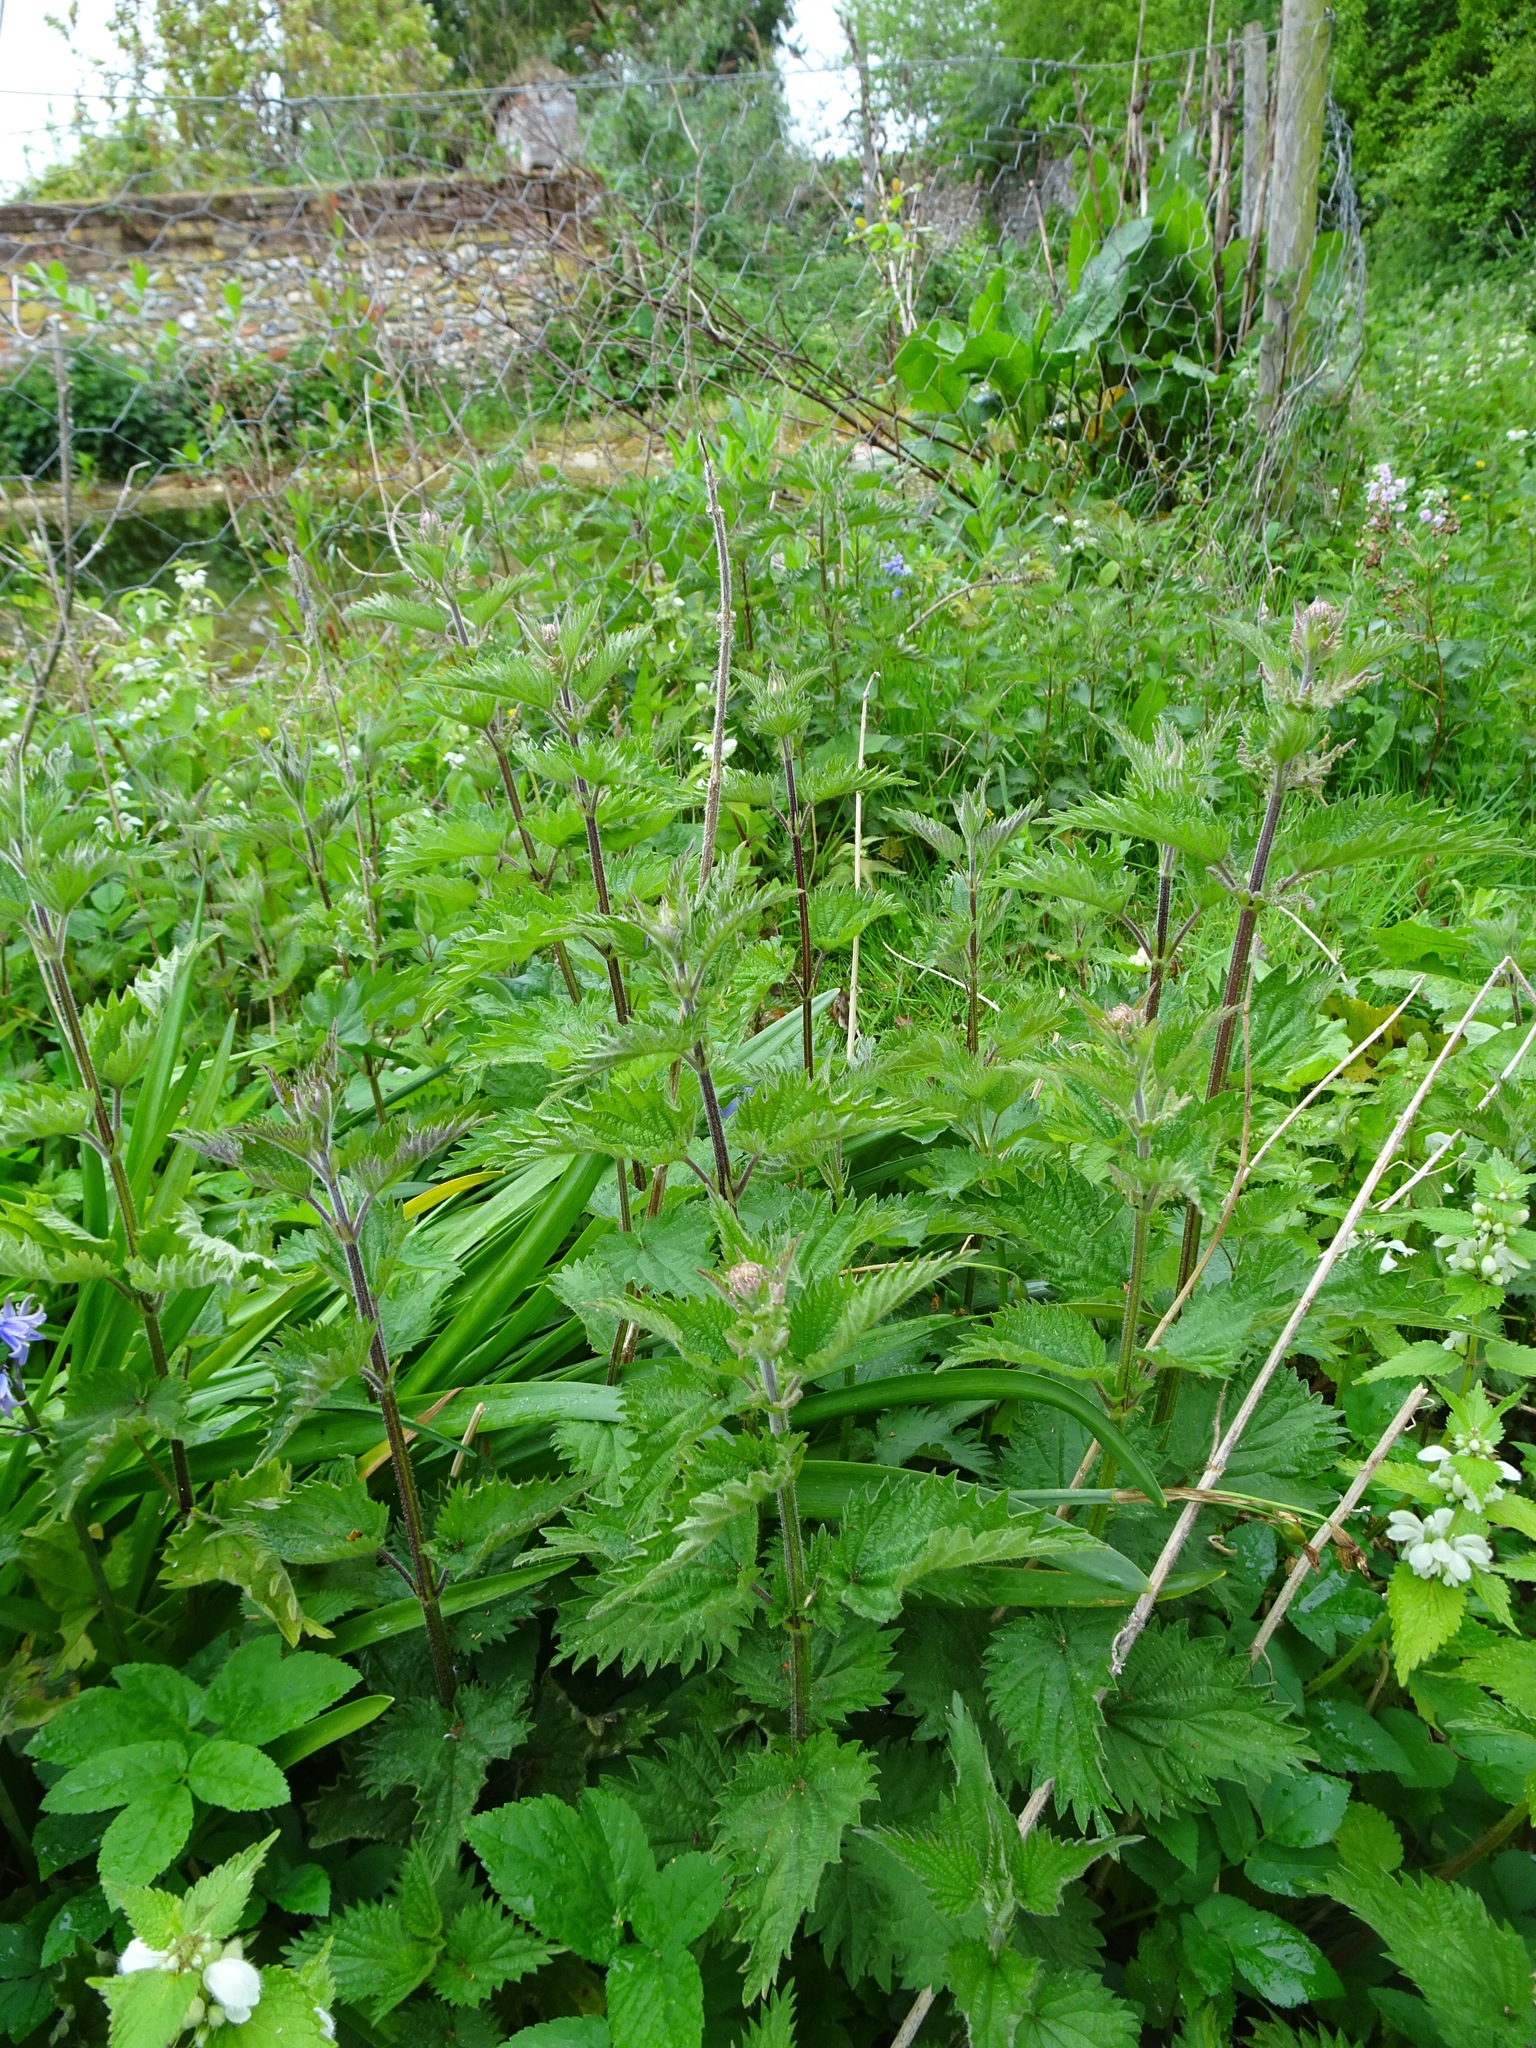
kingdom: Plantae
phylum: Tracheophyta
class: Magnoliopsida
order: Rosales
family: Urticaceae
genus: Urtica
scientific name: Urtica dioica
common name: Common nettle
